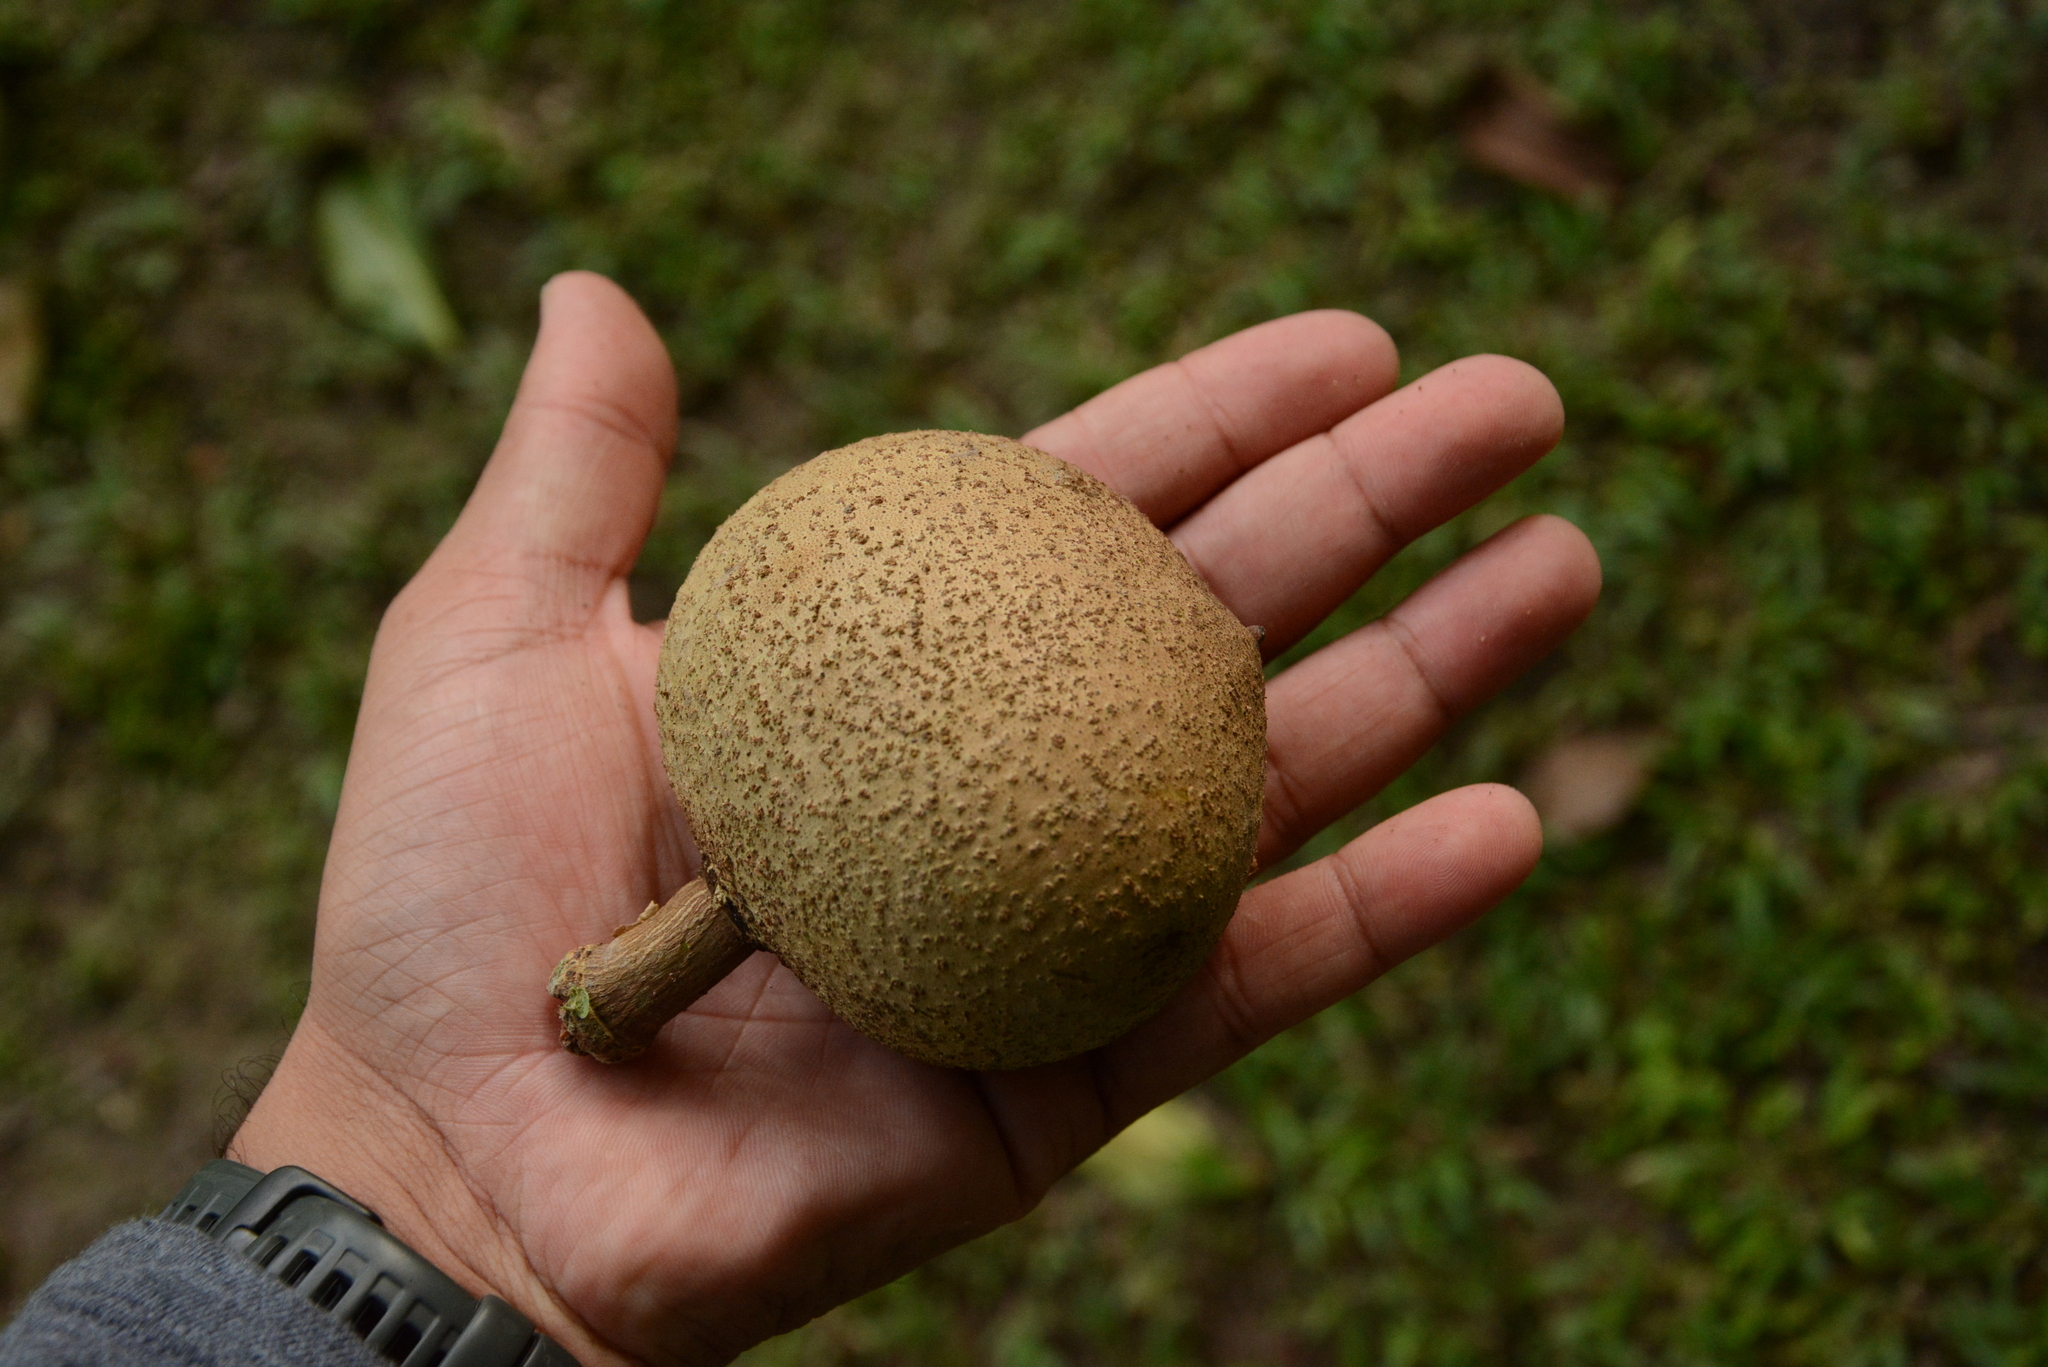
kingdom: Plantae
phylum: Tracheophyta
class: Magnoliopsida
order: Malpighiales
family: Calophyllaceae
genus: Mammea
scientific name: Mammea americana
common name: Mamey
